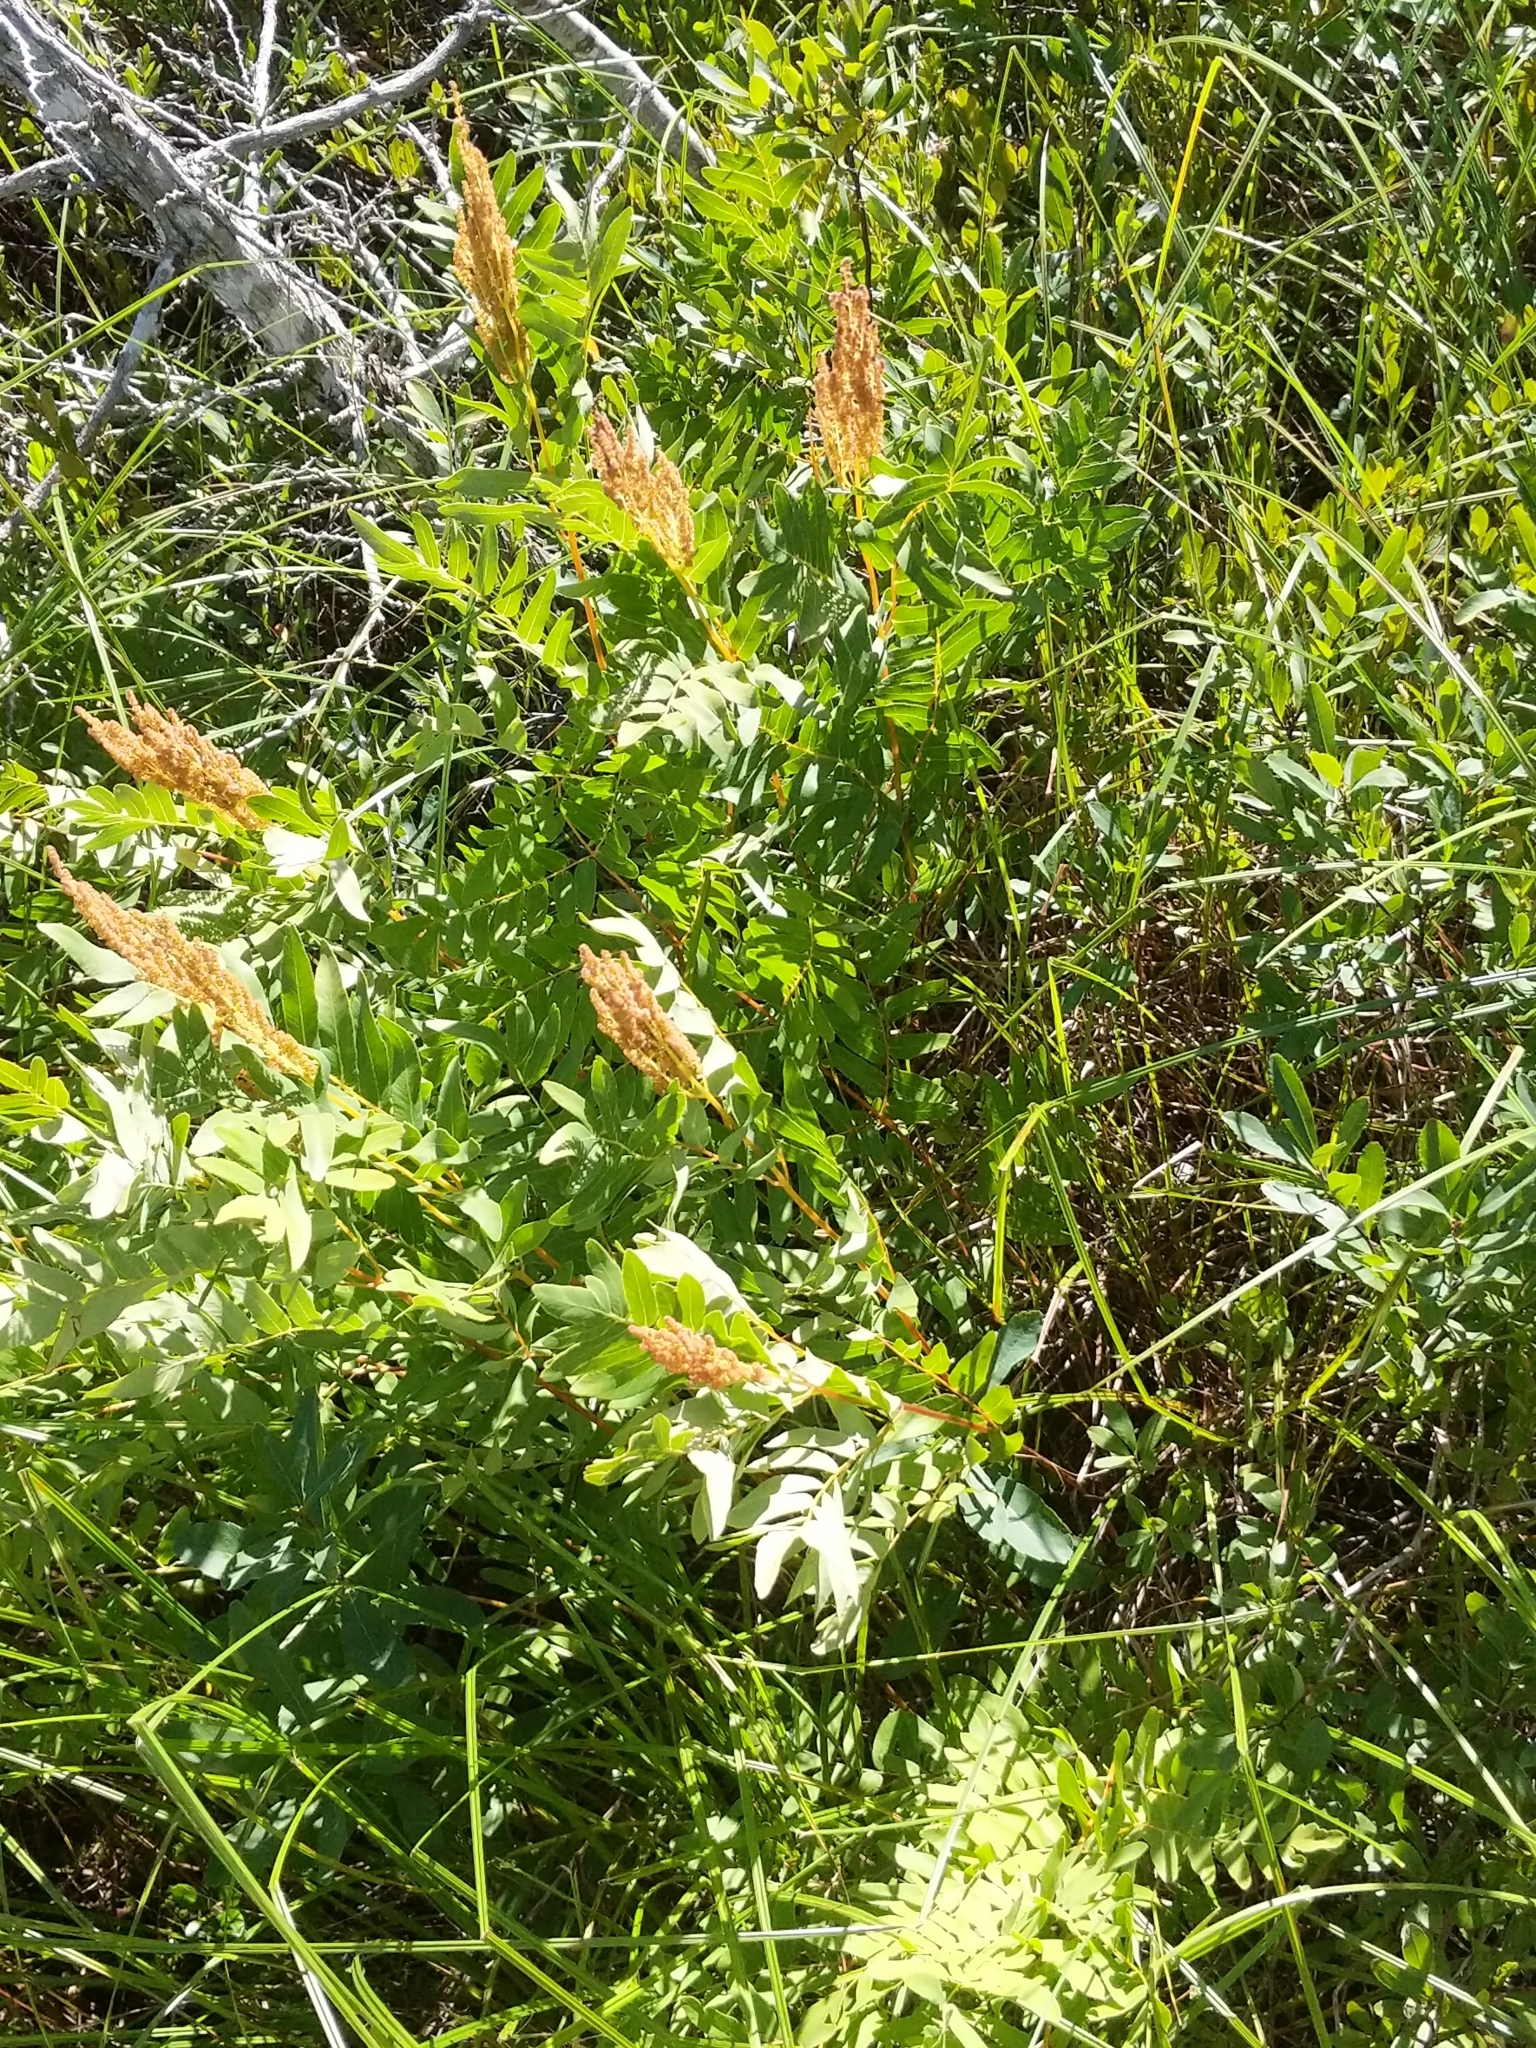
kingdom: Plantae
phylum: Tracheophyta
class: Polypodiopsida
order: Osmundales
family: Osmundaceae
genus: Osmunda
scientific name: Osmunda spectabilis
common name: American royal fern
